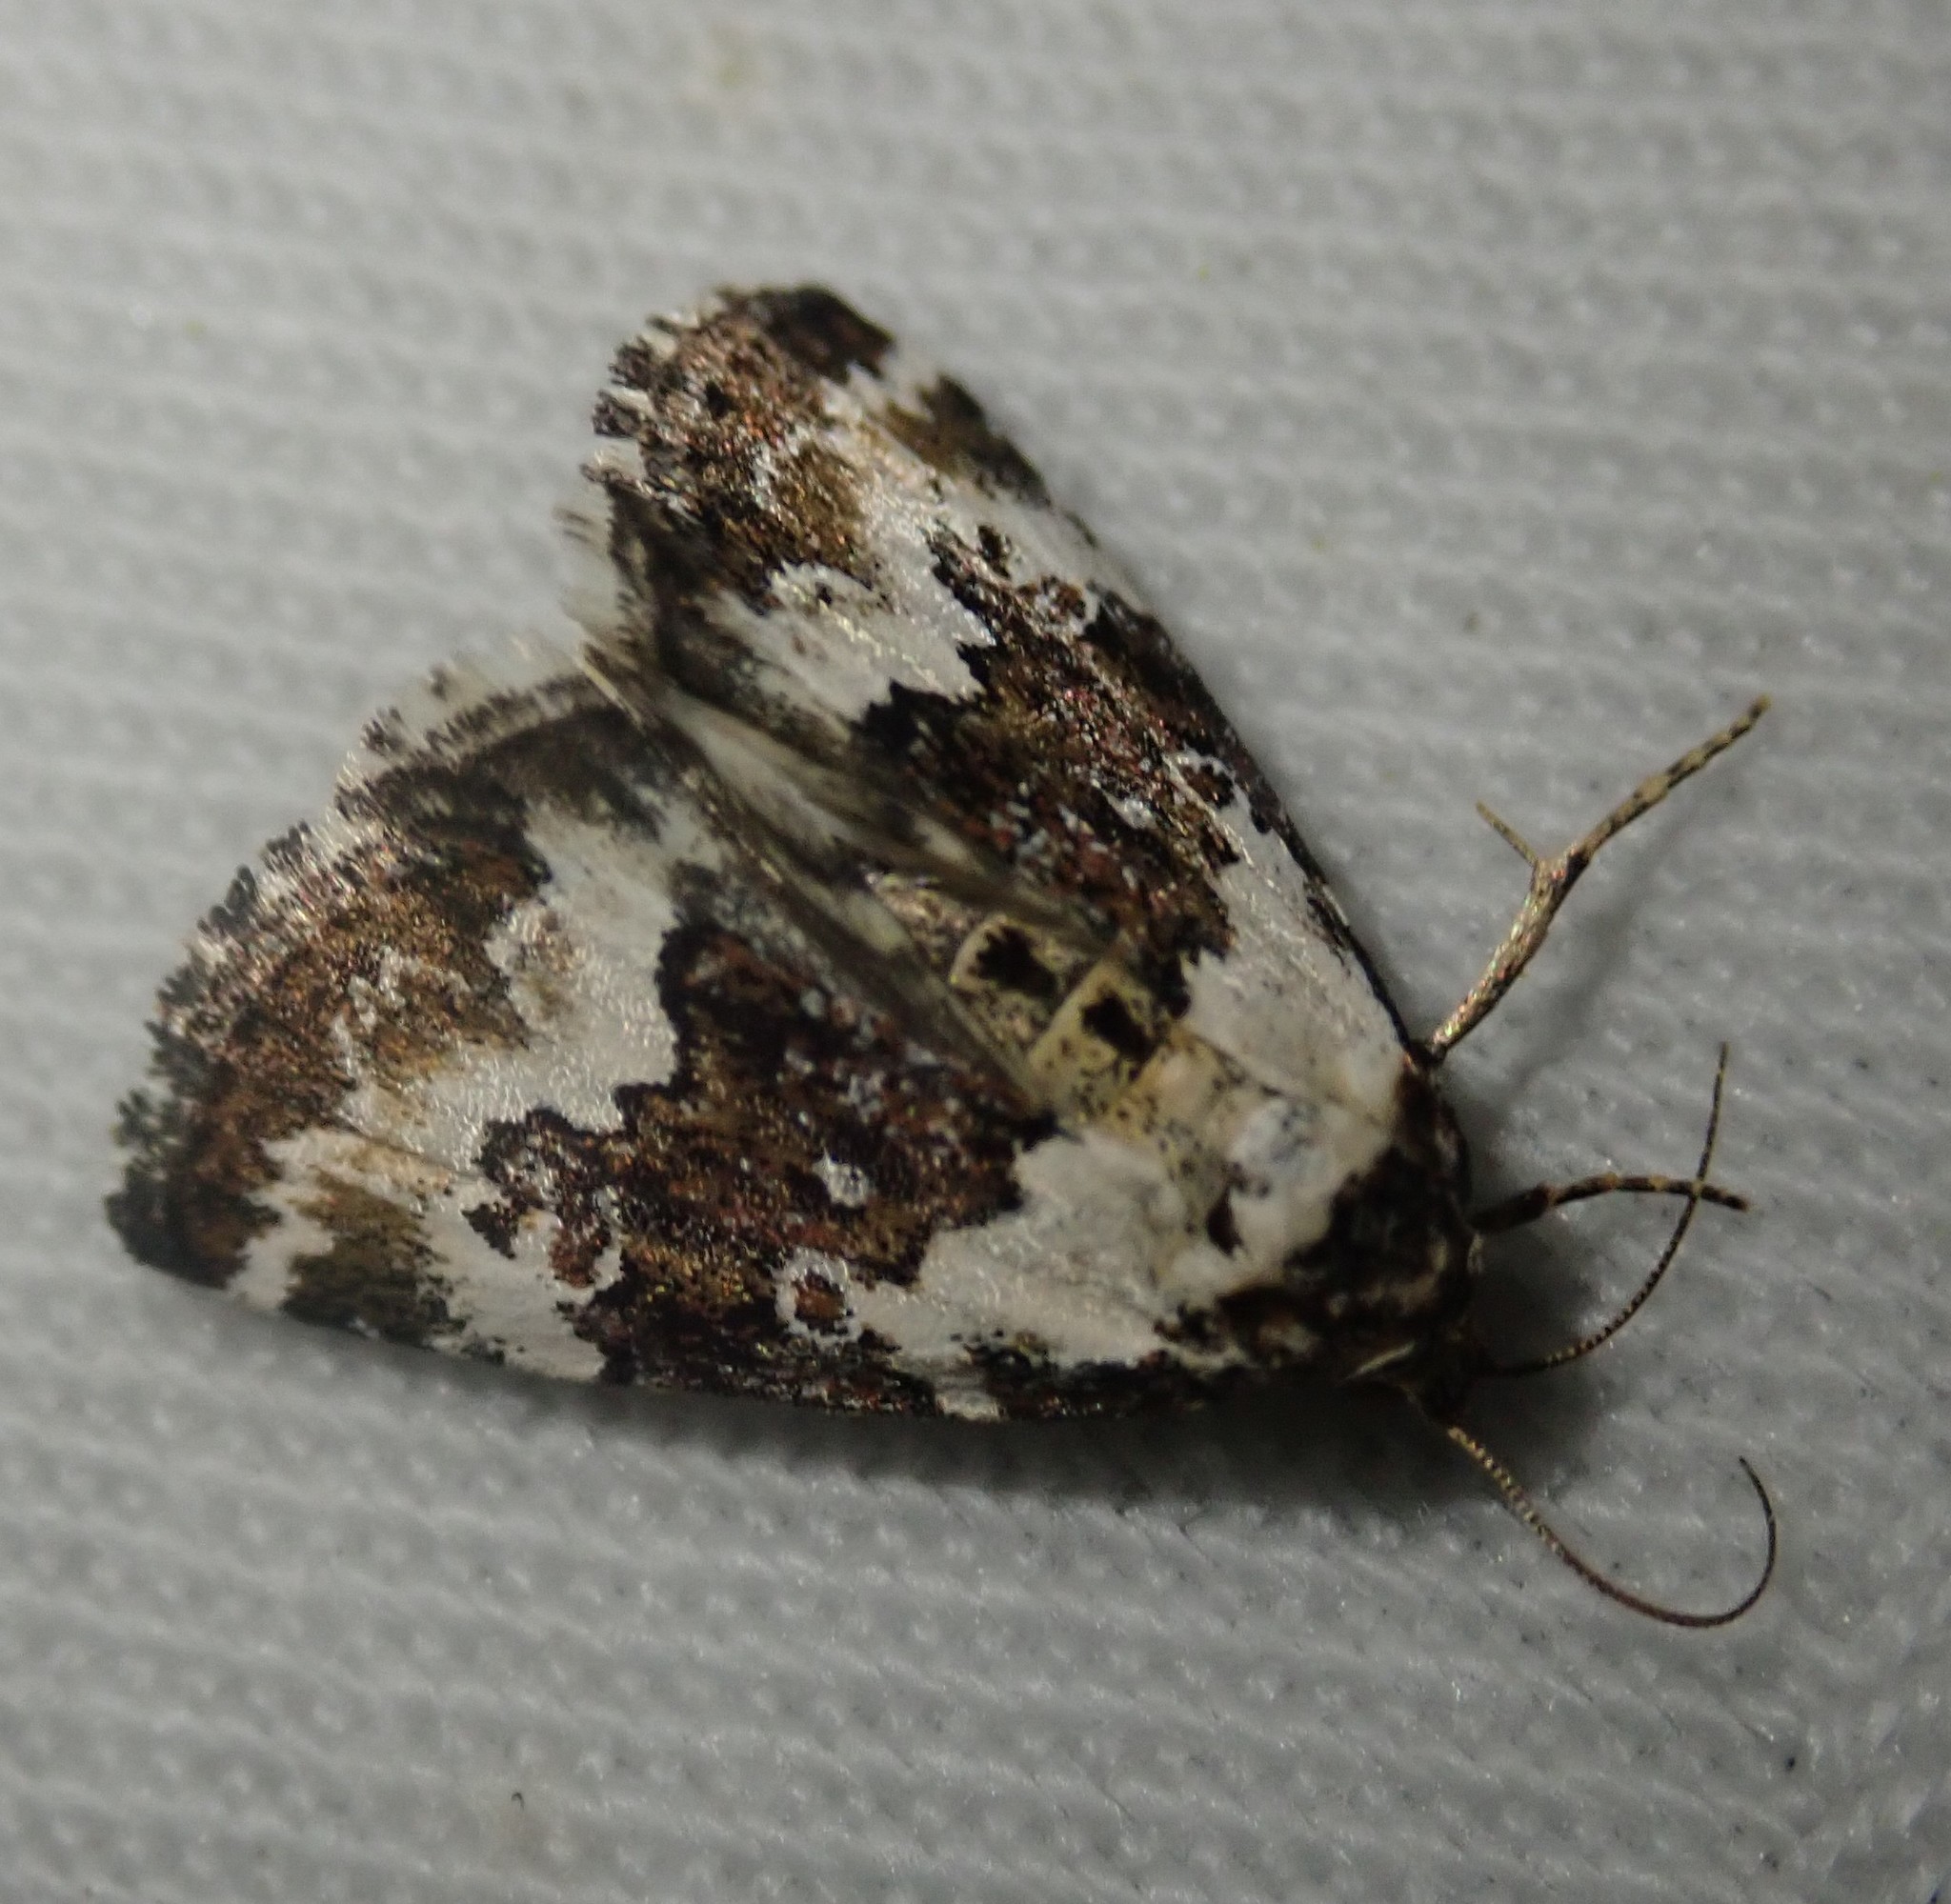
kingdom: Animalia
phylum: Arthropoda
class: Insecta
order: Lepidoptera
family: Noctuidae
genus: Deltote
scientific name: Deltote deceptoria
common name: Pretty marbled
